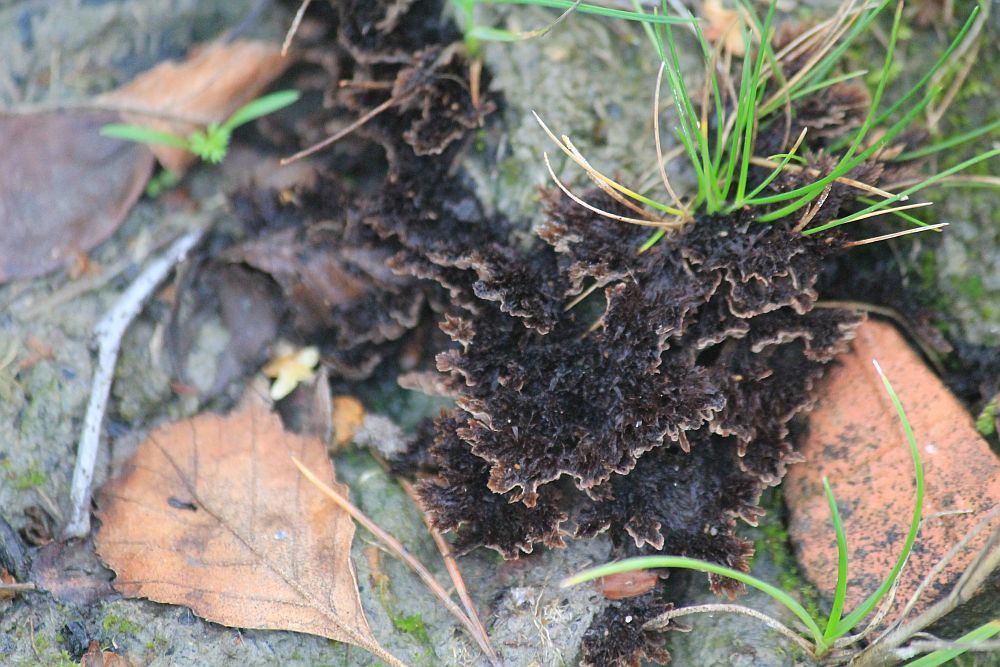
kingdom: Fungi
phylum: Basidiomycota
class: Agaricomycetes
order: Thelephorales
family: Thelephoraceae
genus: Thelephora
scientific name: Thelephora terrestris
